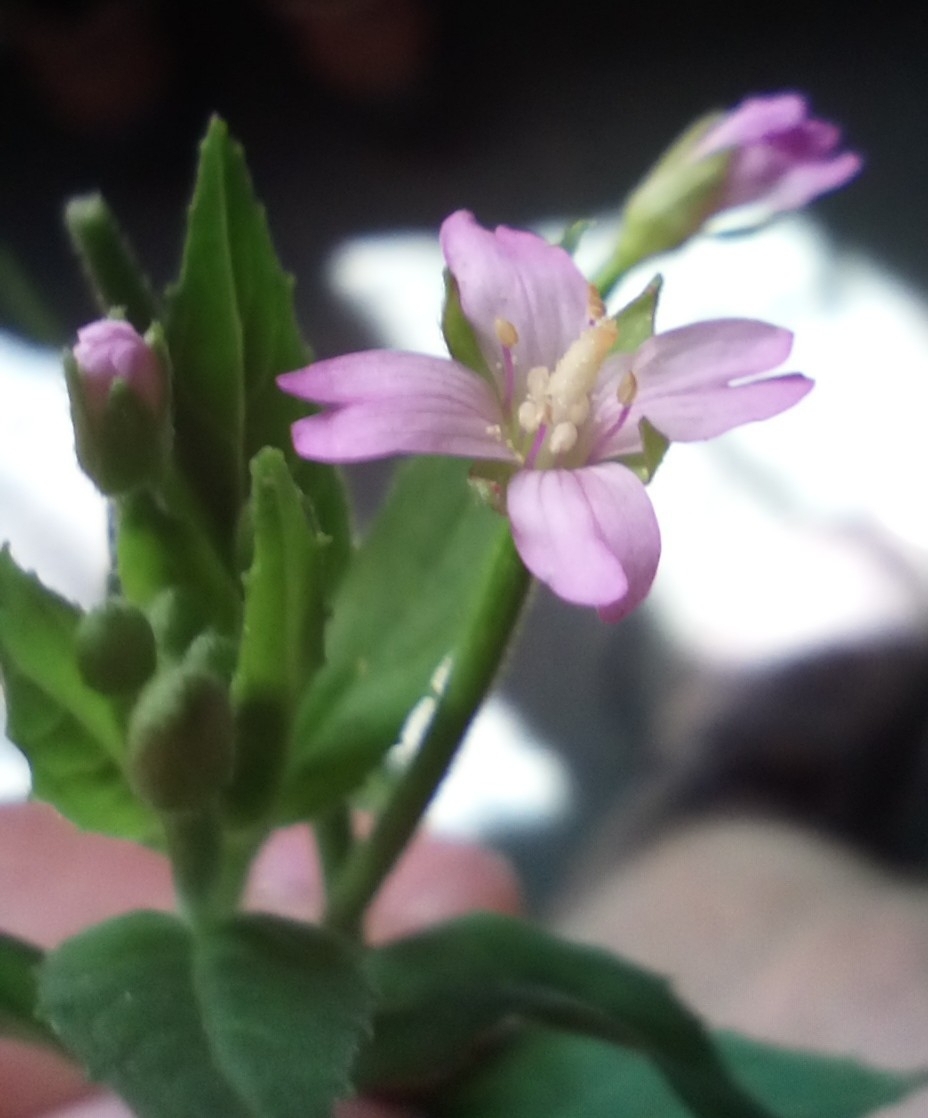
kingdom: Plantae
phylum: Tracheophyta
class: Magnoliopsida
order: Myrtales
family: Onagraceae
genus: Epilobium
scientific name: Epilobium ciliatum
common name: American willowherb
